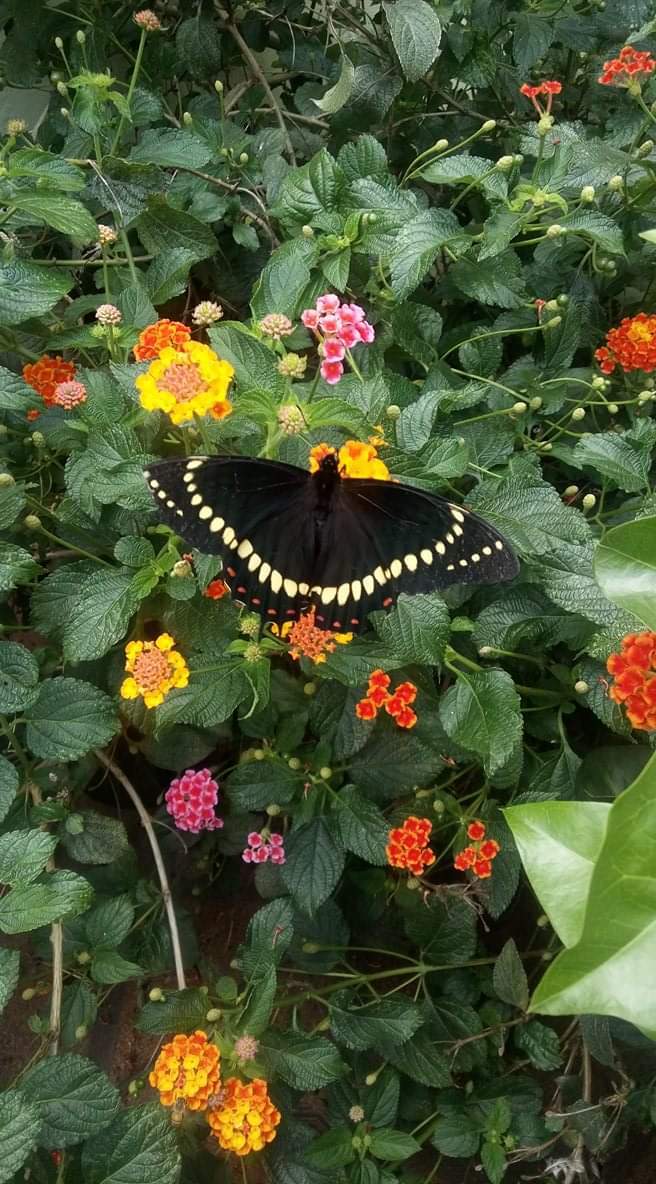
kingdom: Animalia
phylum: Arthropoda
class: Insecta
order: Lepidoptera
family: Papilionidae
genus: Papilio
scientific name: Papilio scamander
